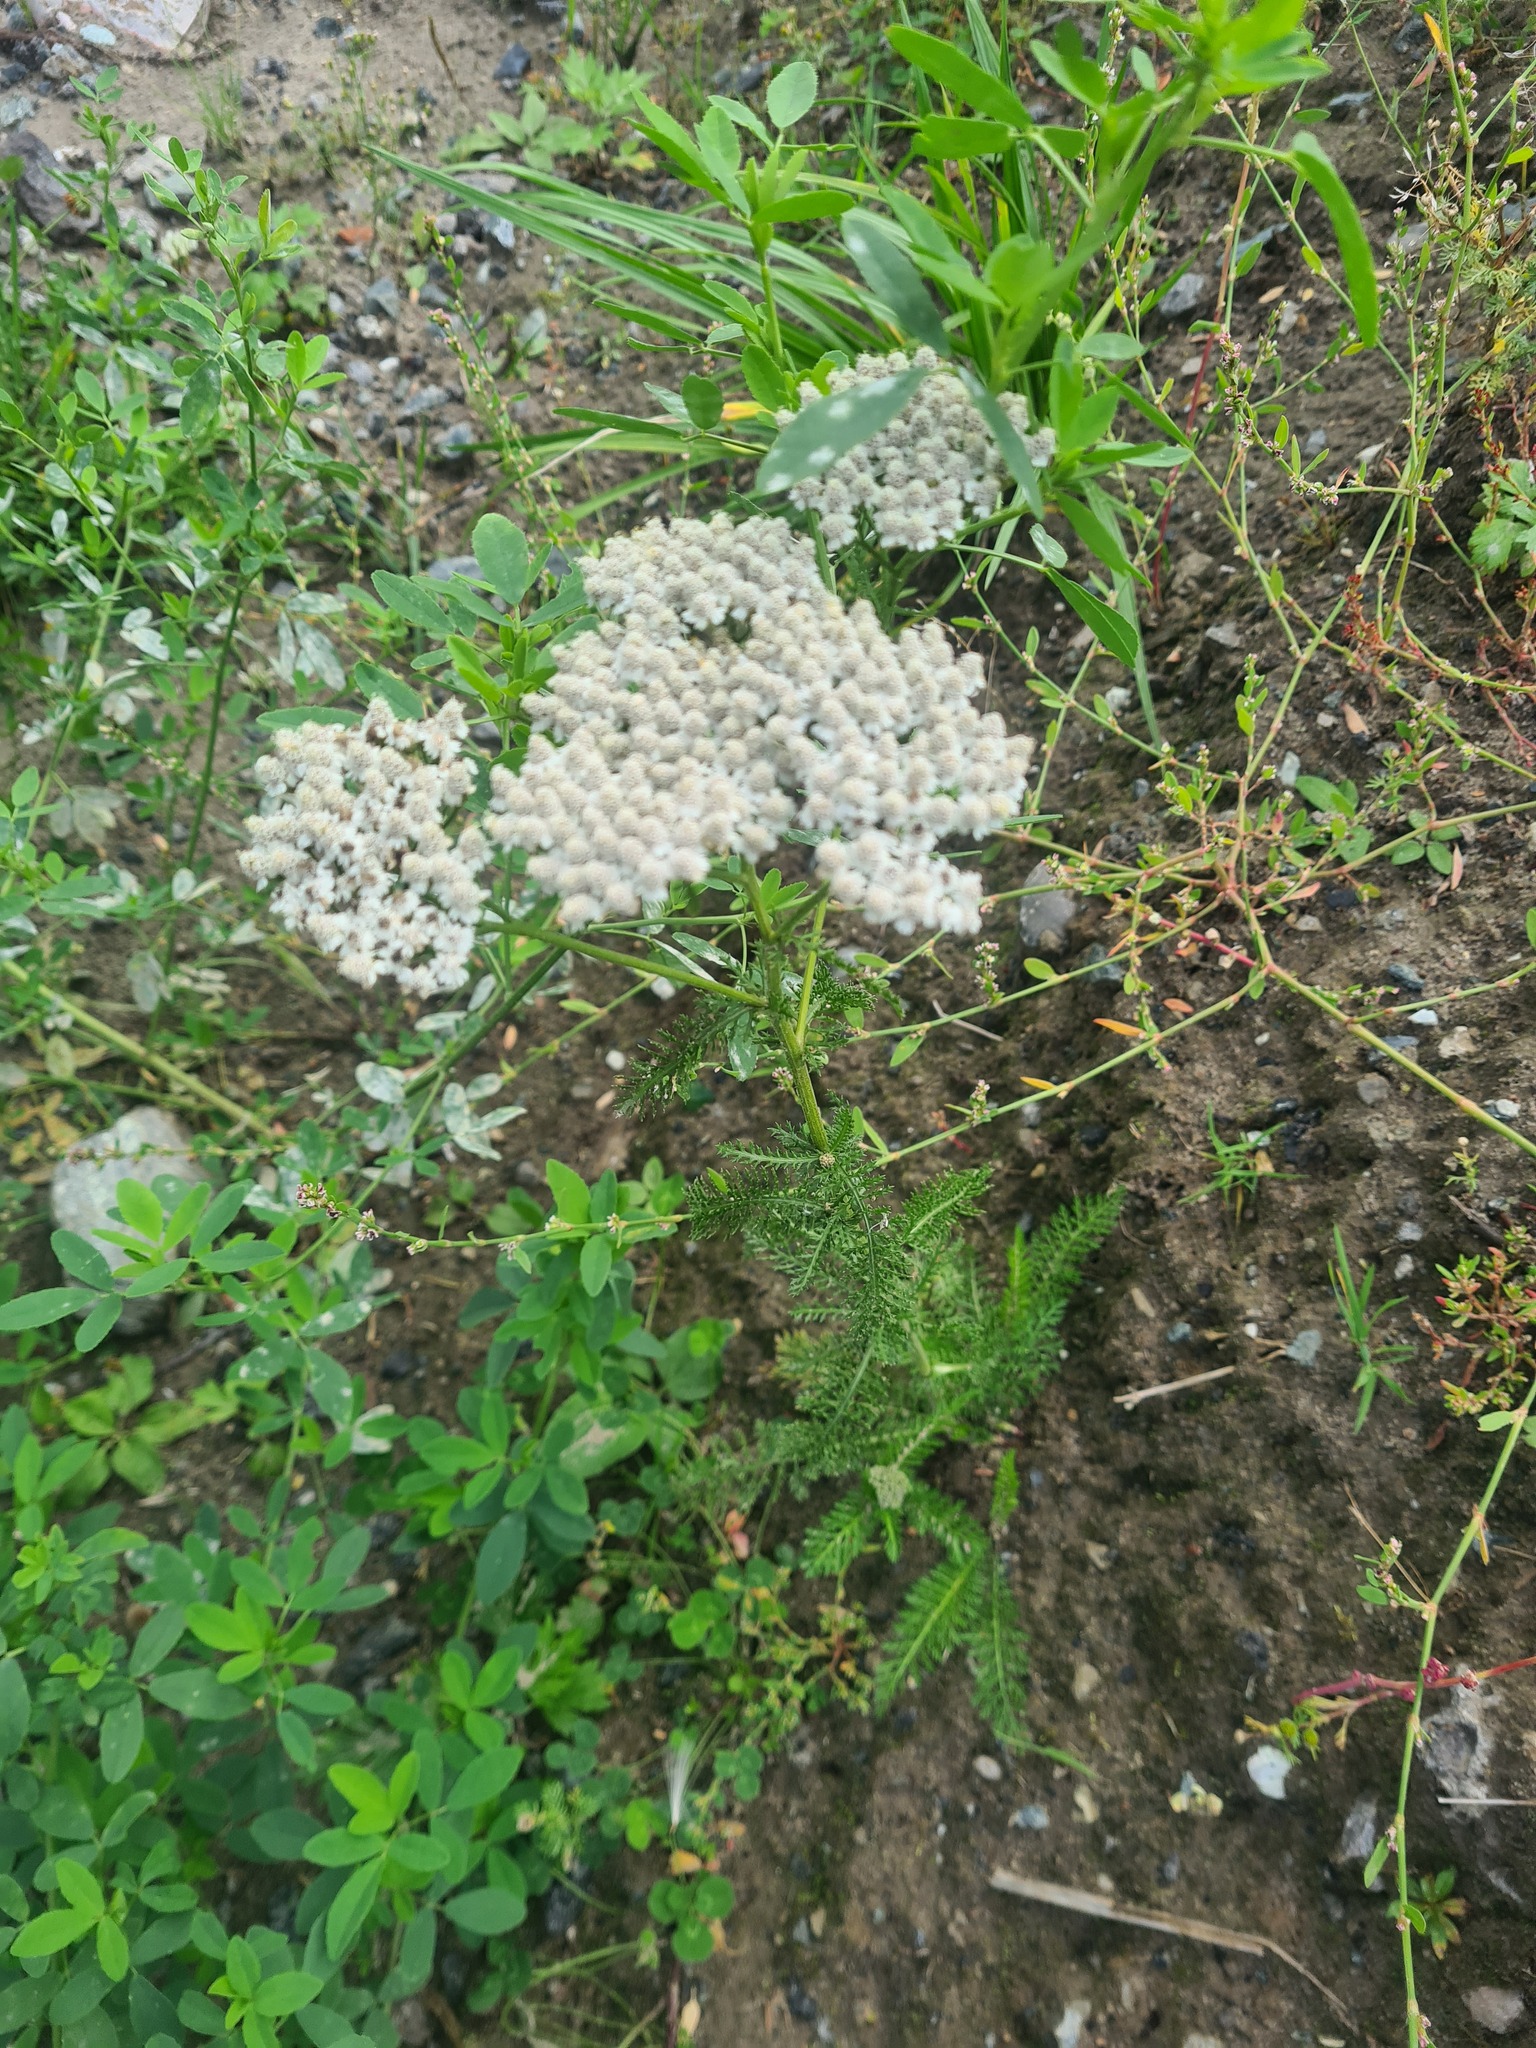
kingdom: Plantae
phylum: Tracheophyta
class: Magnoliopsida
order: Asterales
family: Asteraceae
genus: Achillea
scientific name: Achillea millefolium
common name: Yarrow
